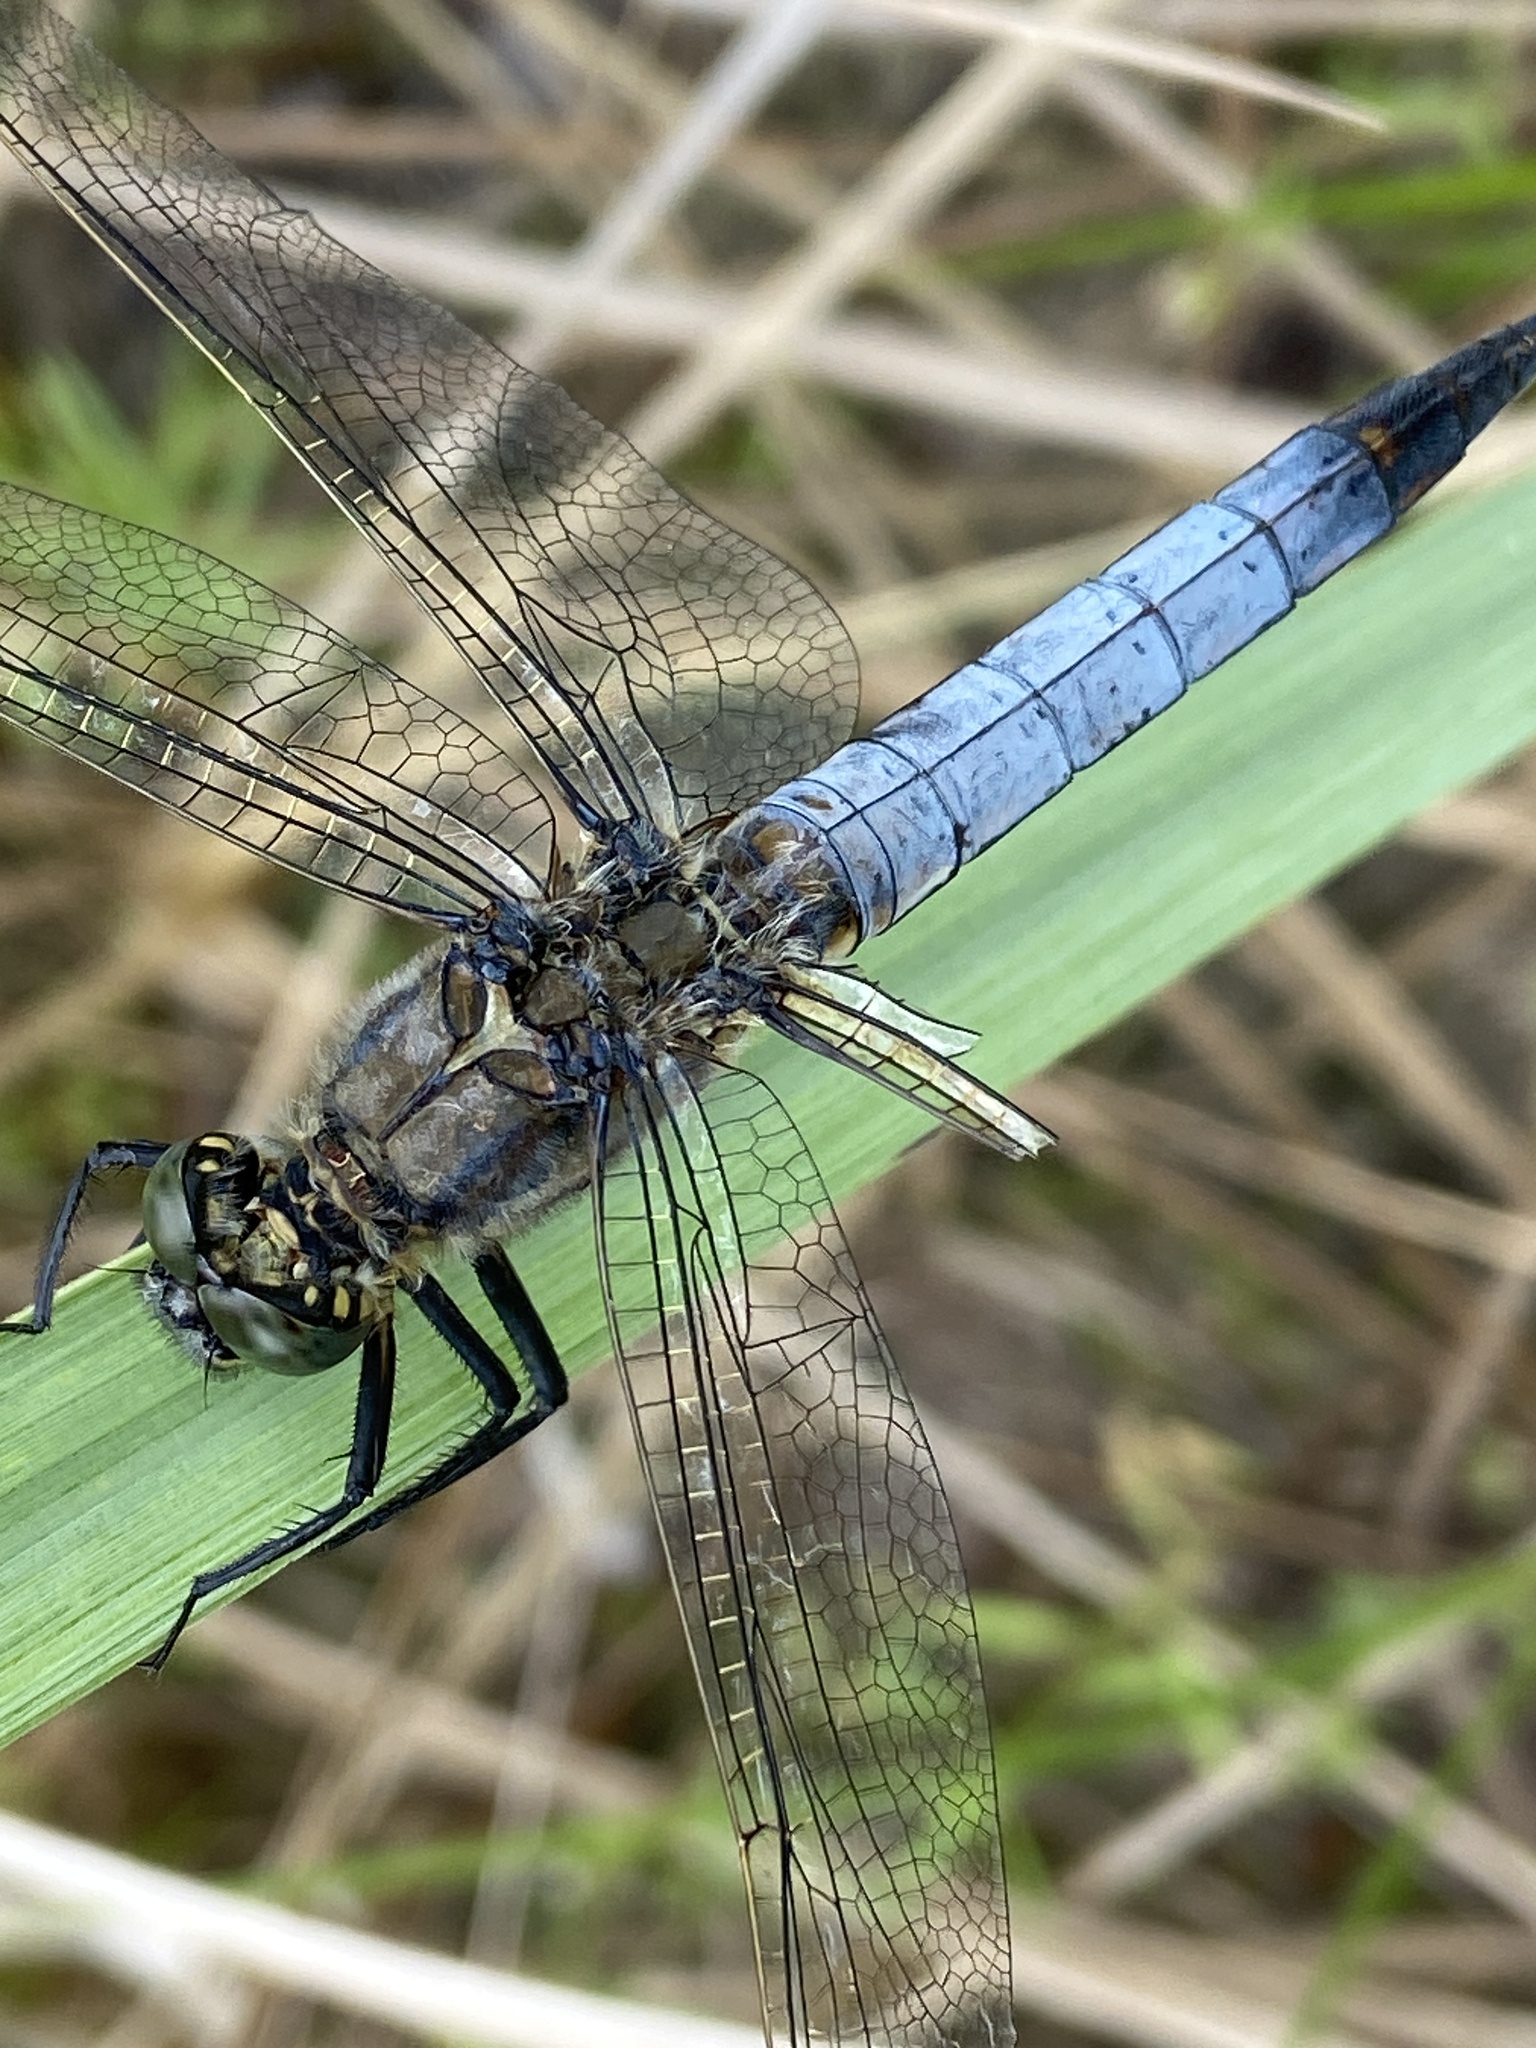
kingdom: Animalia
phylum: Arthropoda
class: Insecta
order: Odonata
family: Libellulidae
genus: Orthetrum
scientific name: Orthetrum cancellatum
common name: Black-tailed skimmer
